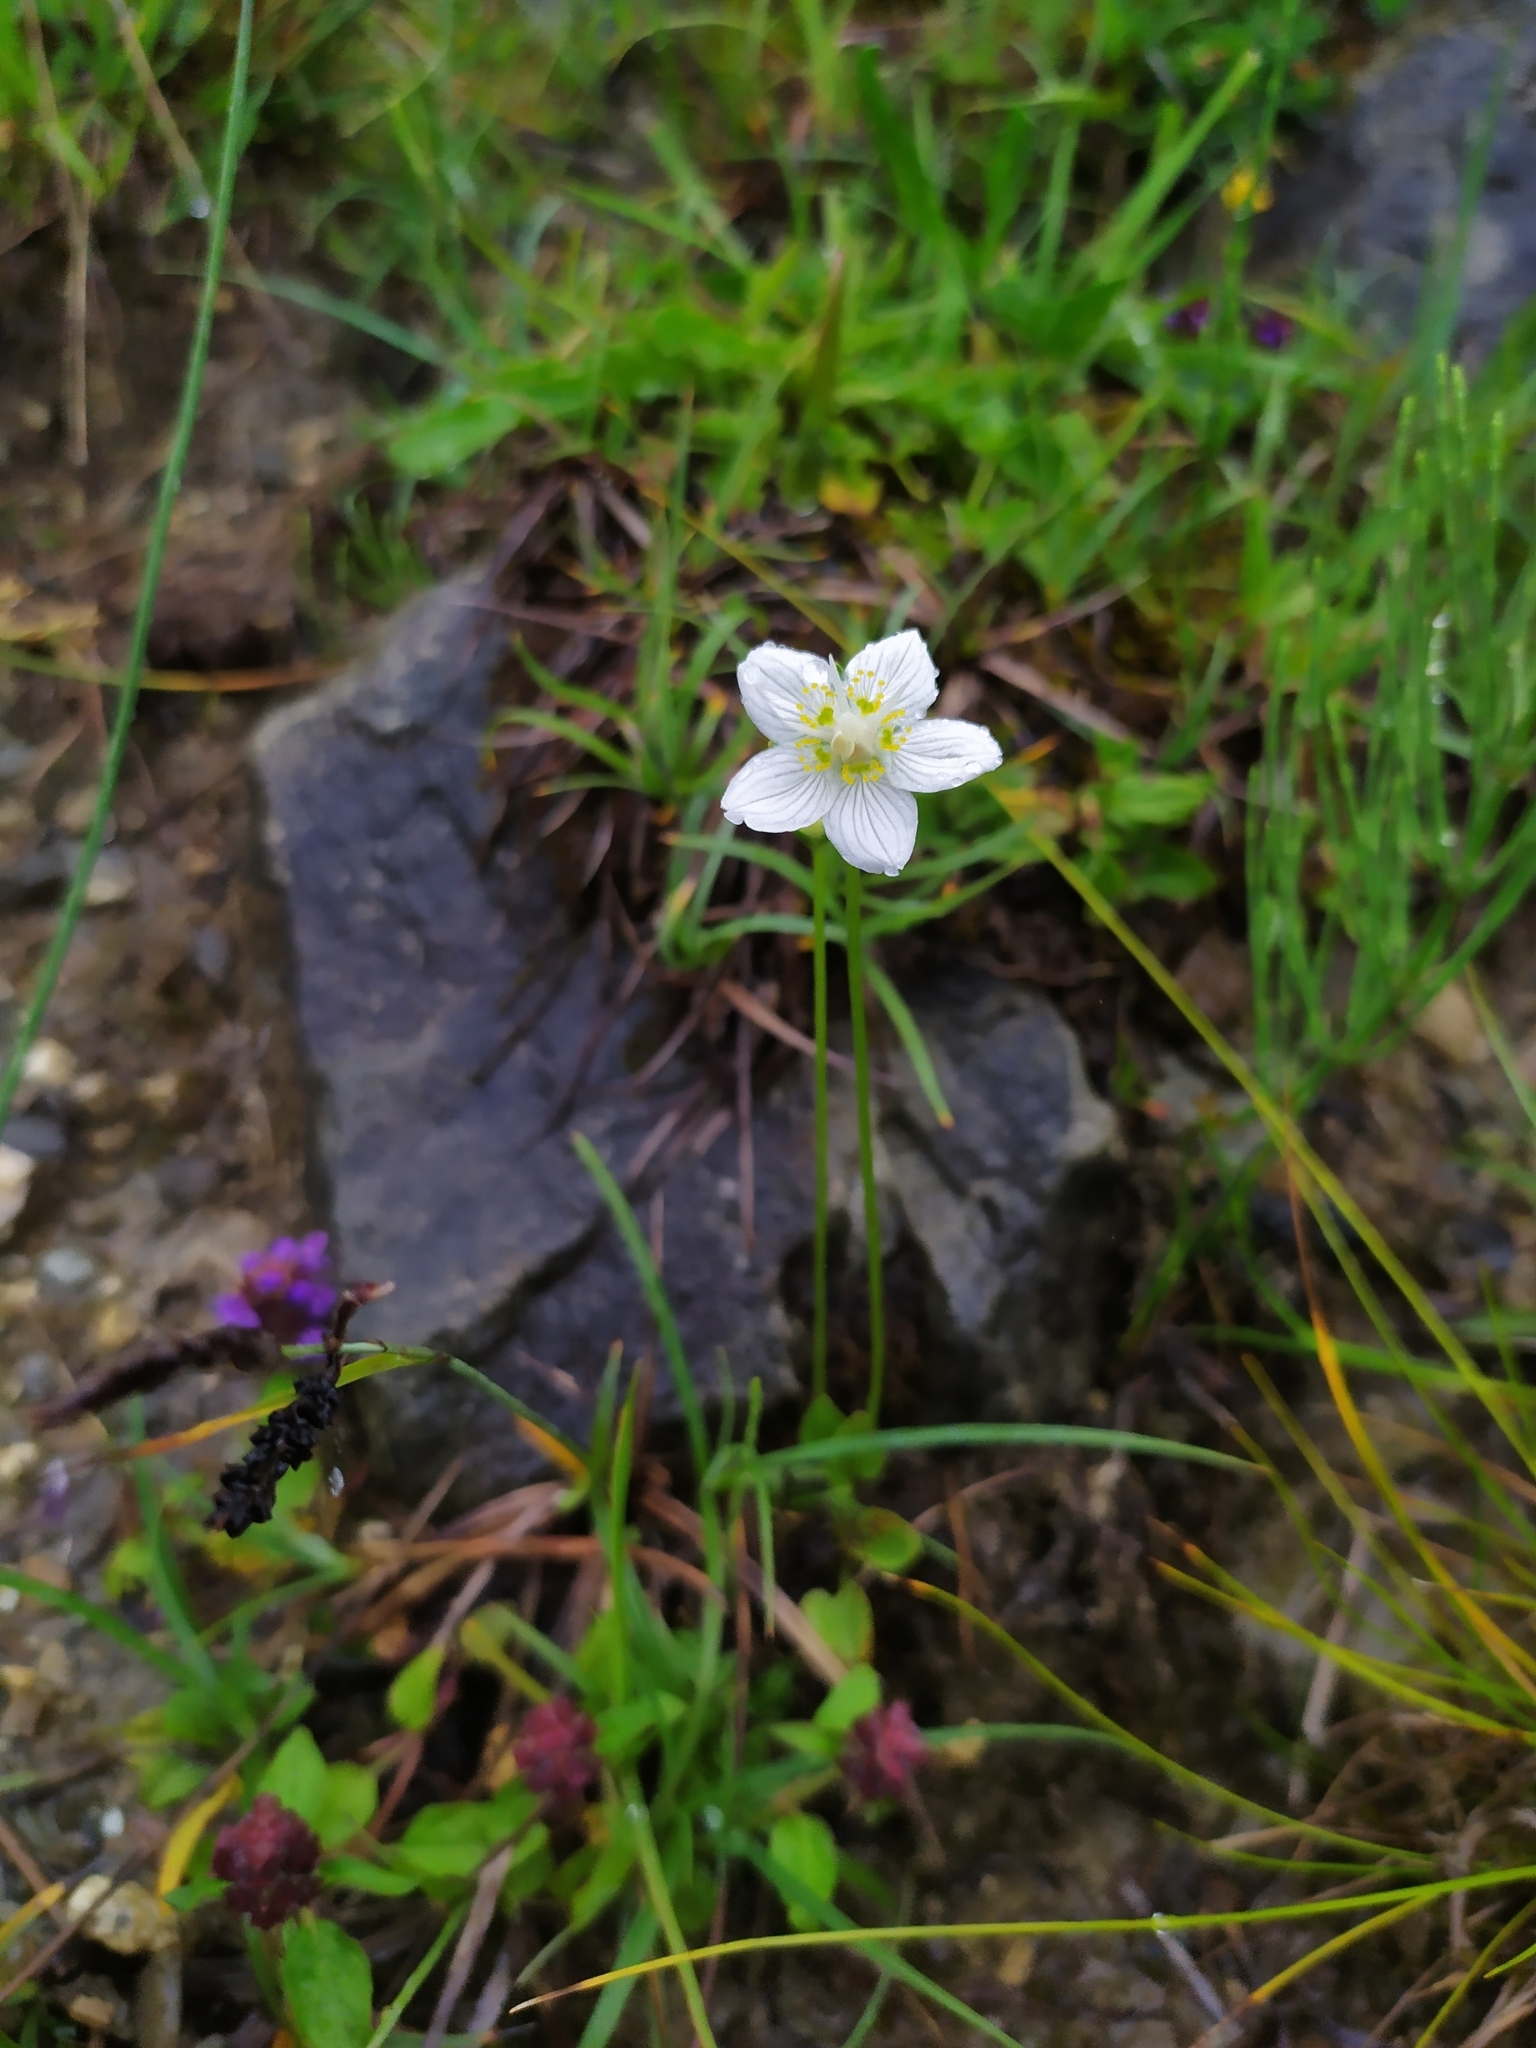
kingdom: Plantae
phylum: Tracheophyta
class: Magnoliopsida
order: Celastrales
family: Parnassiaceae
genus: Parnassia
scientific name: Parnassia palustris
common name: Grass-of-parnassus
